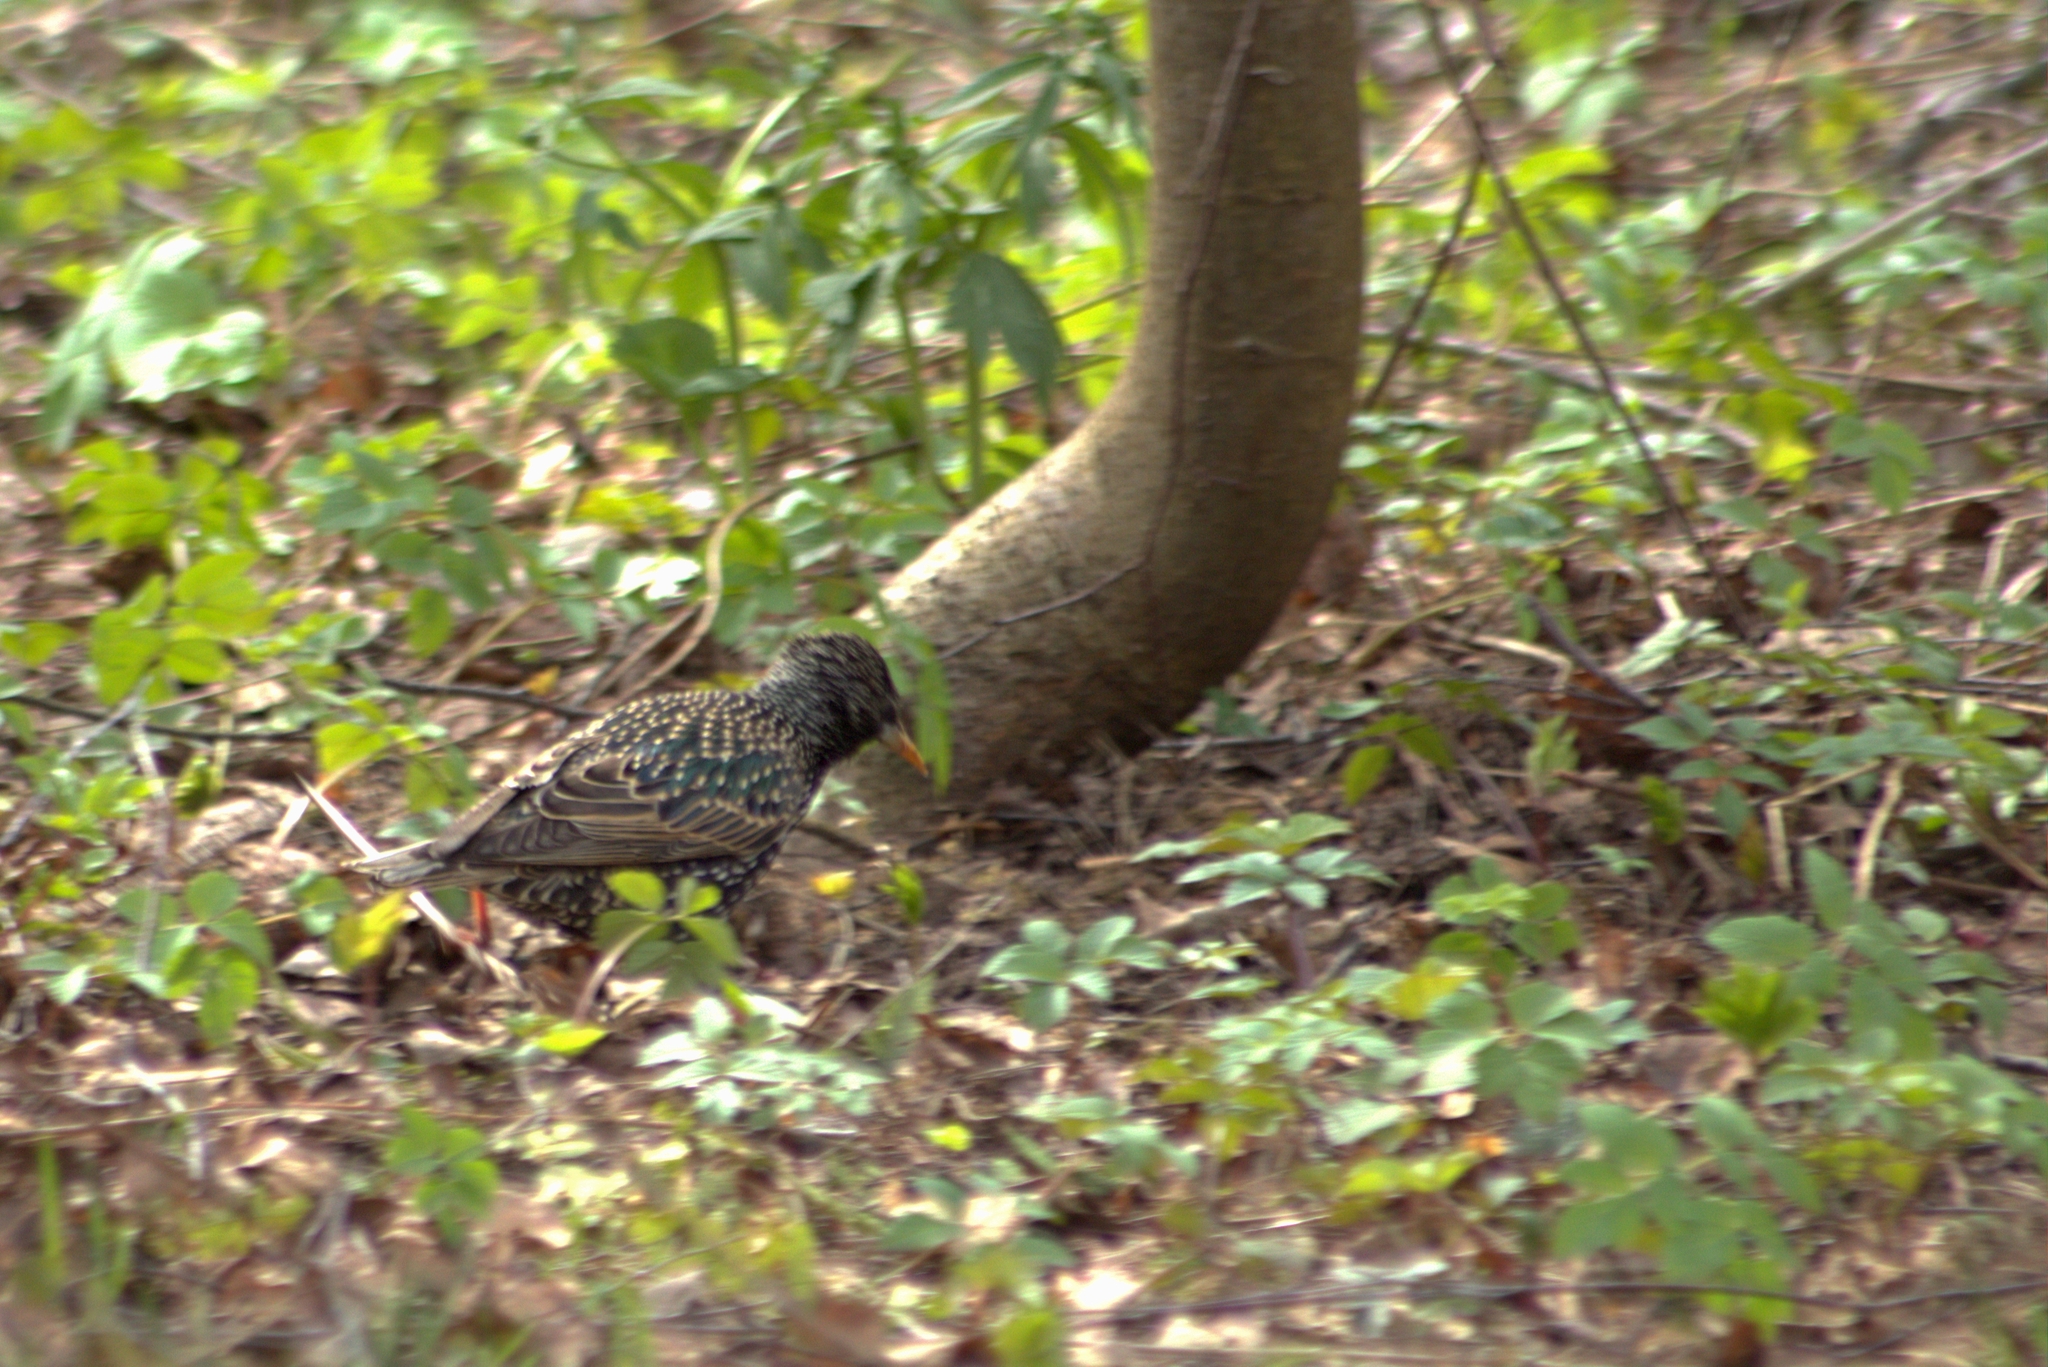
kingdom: Animalia
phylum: Chordata
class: Aves
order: Passeriformes
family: Sturnidae
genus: Sturnus
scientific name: Sturnus vulgaris
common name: Common starling
